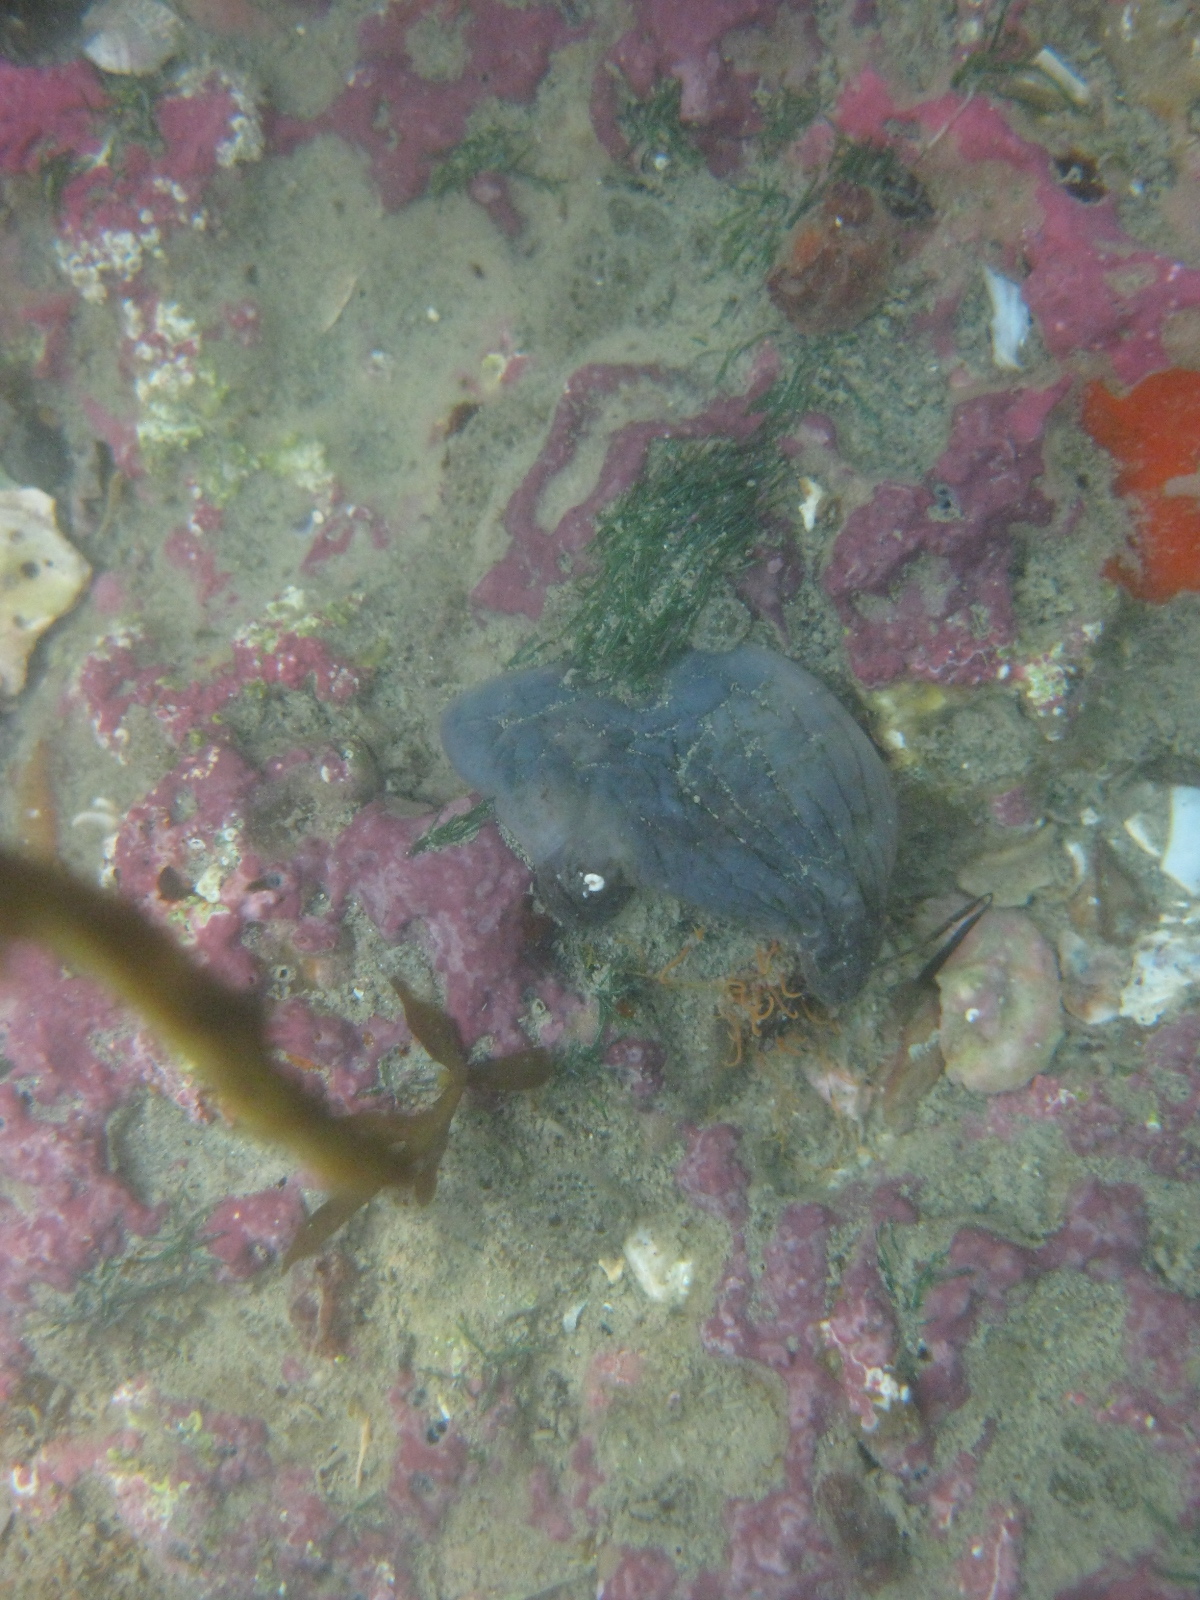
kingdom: Animalia
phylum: Chordata
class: Ascidiacea
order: Stolidobranchia
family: Styelidae
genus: Asterocarpa
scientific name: Asterocarpa coerulea
